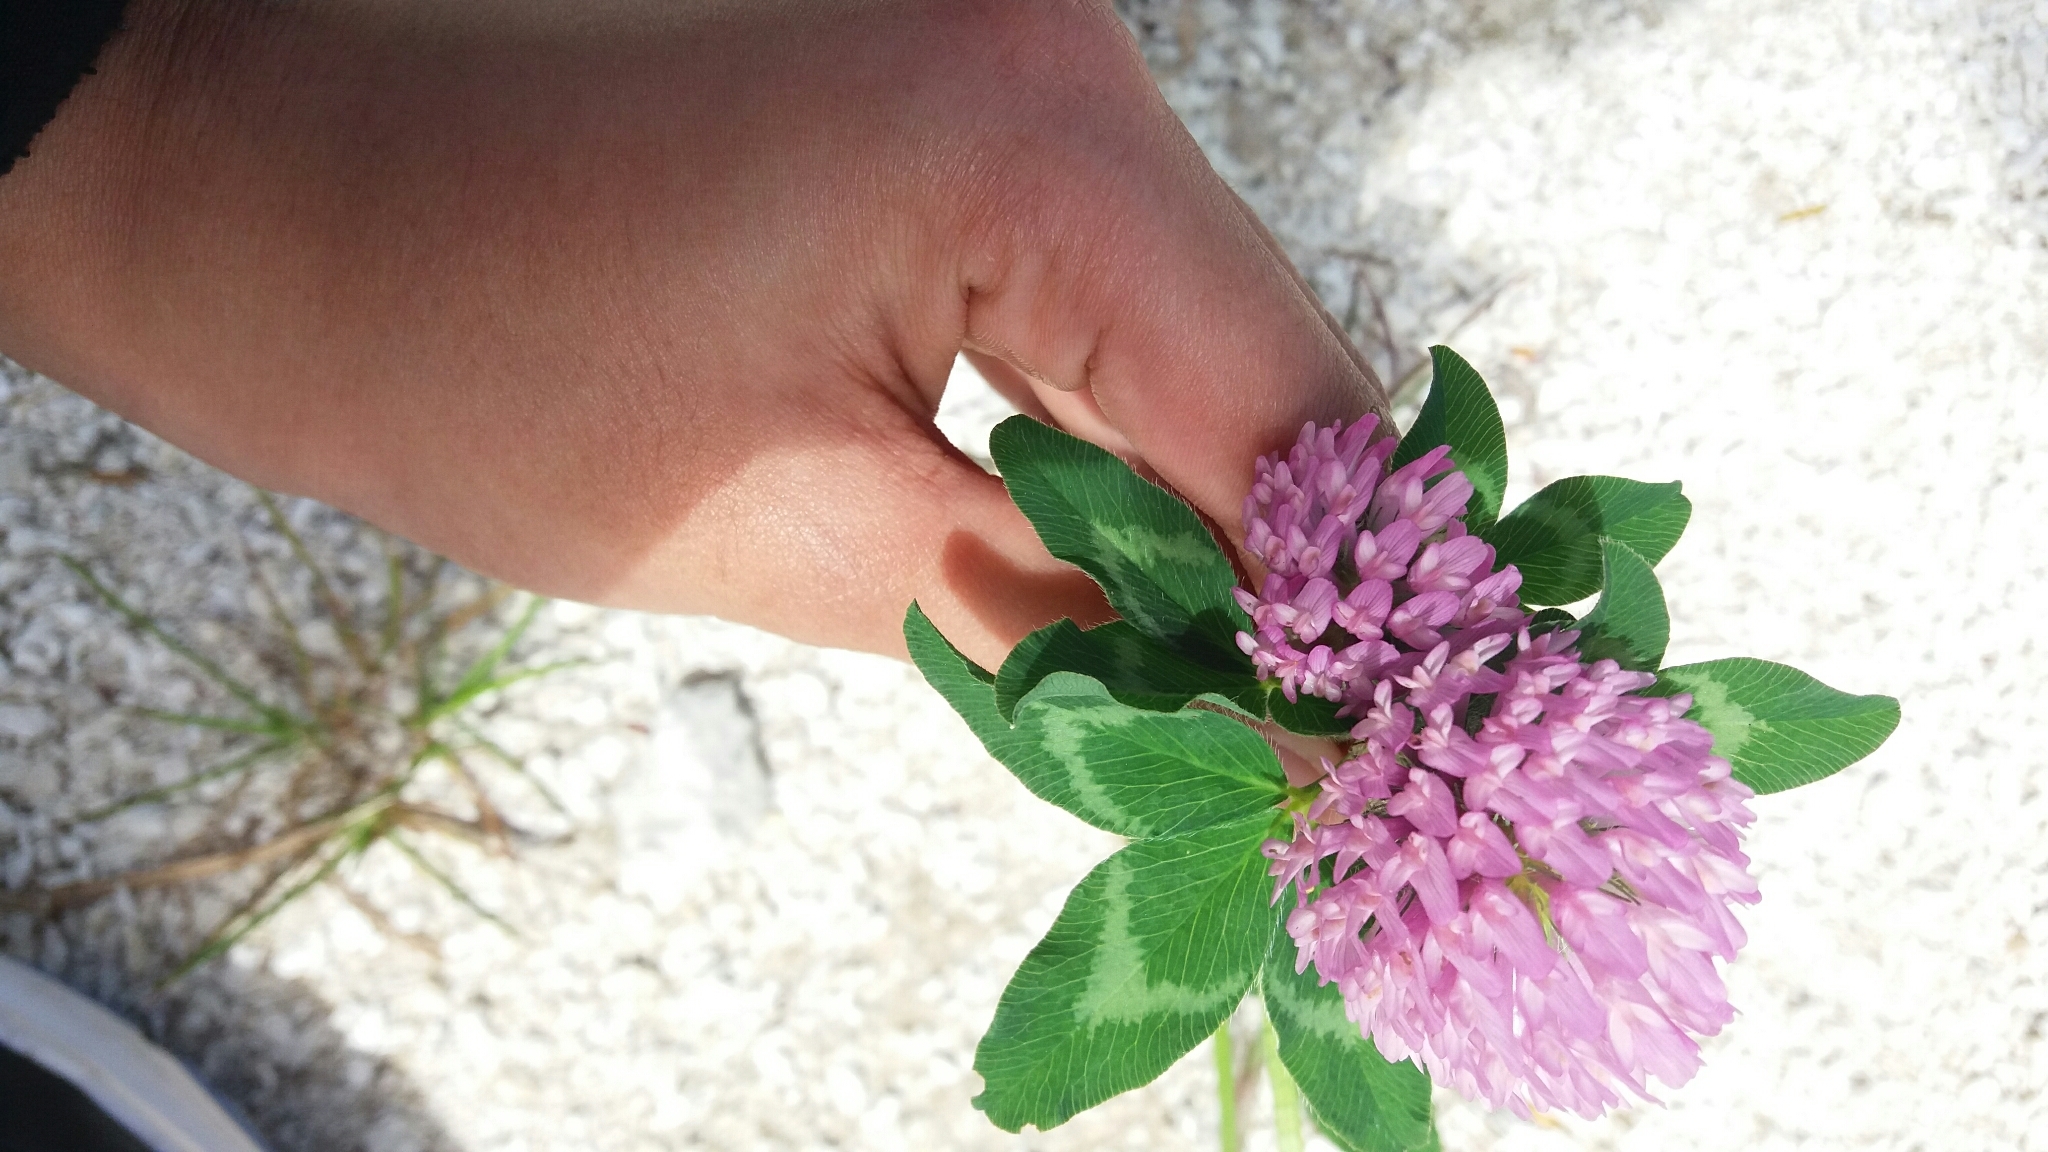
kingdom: Plantae
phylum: Tracheophyta
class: Magnoliopsida
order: Fabales
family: Fabaceae
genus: Trifolium
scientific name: Trifolium pratense
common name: Red clover
